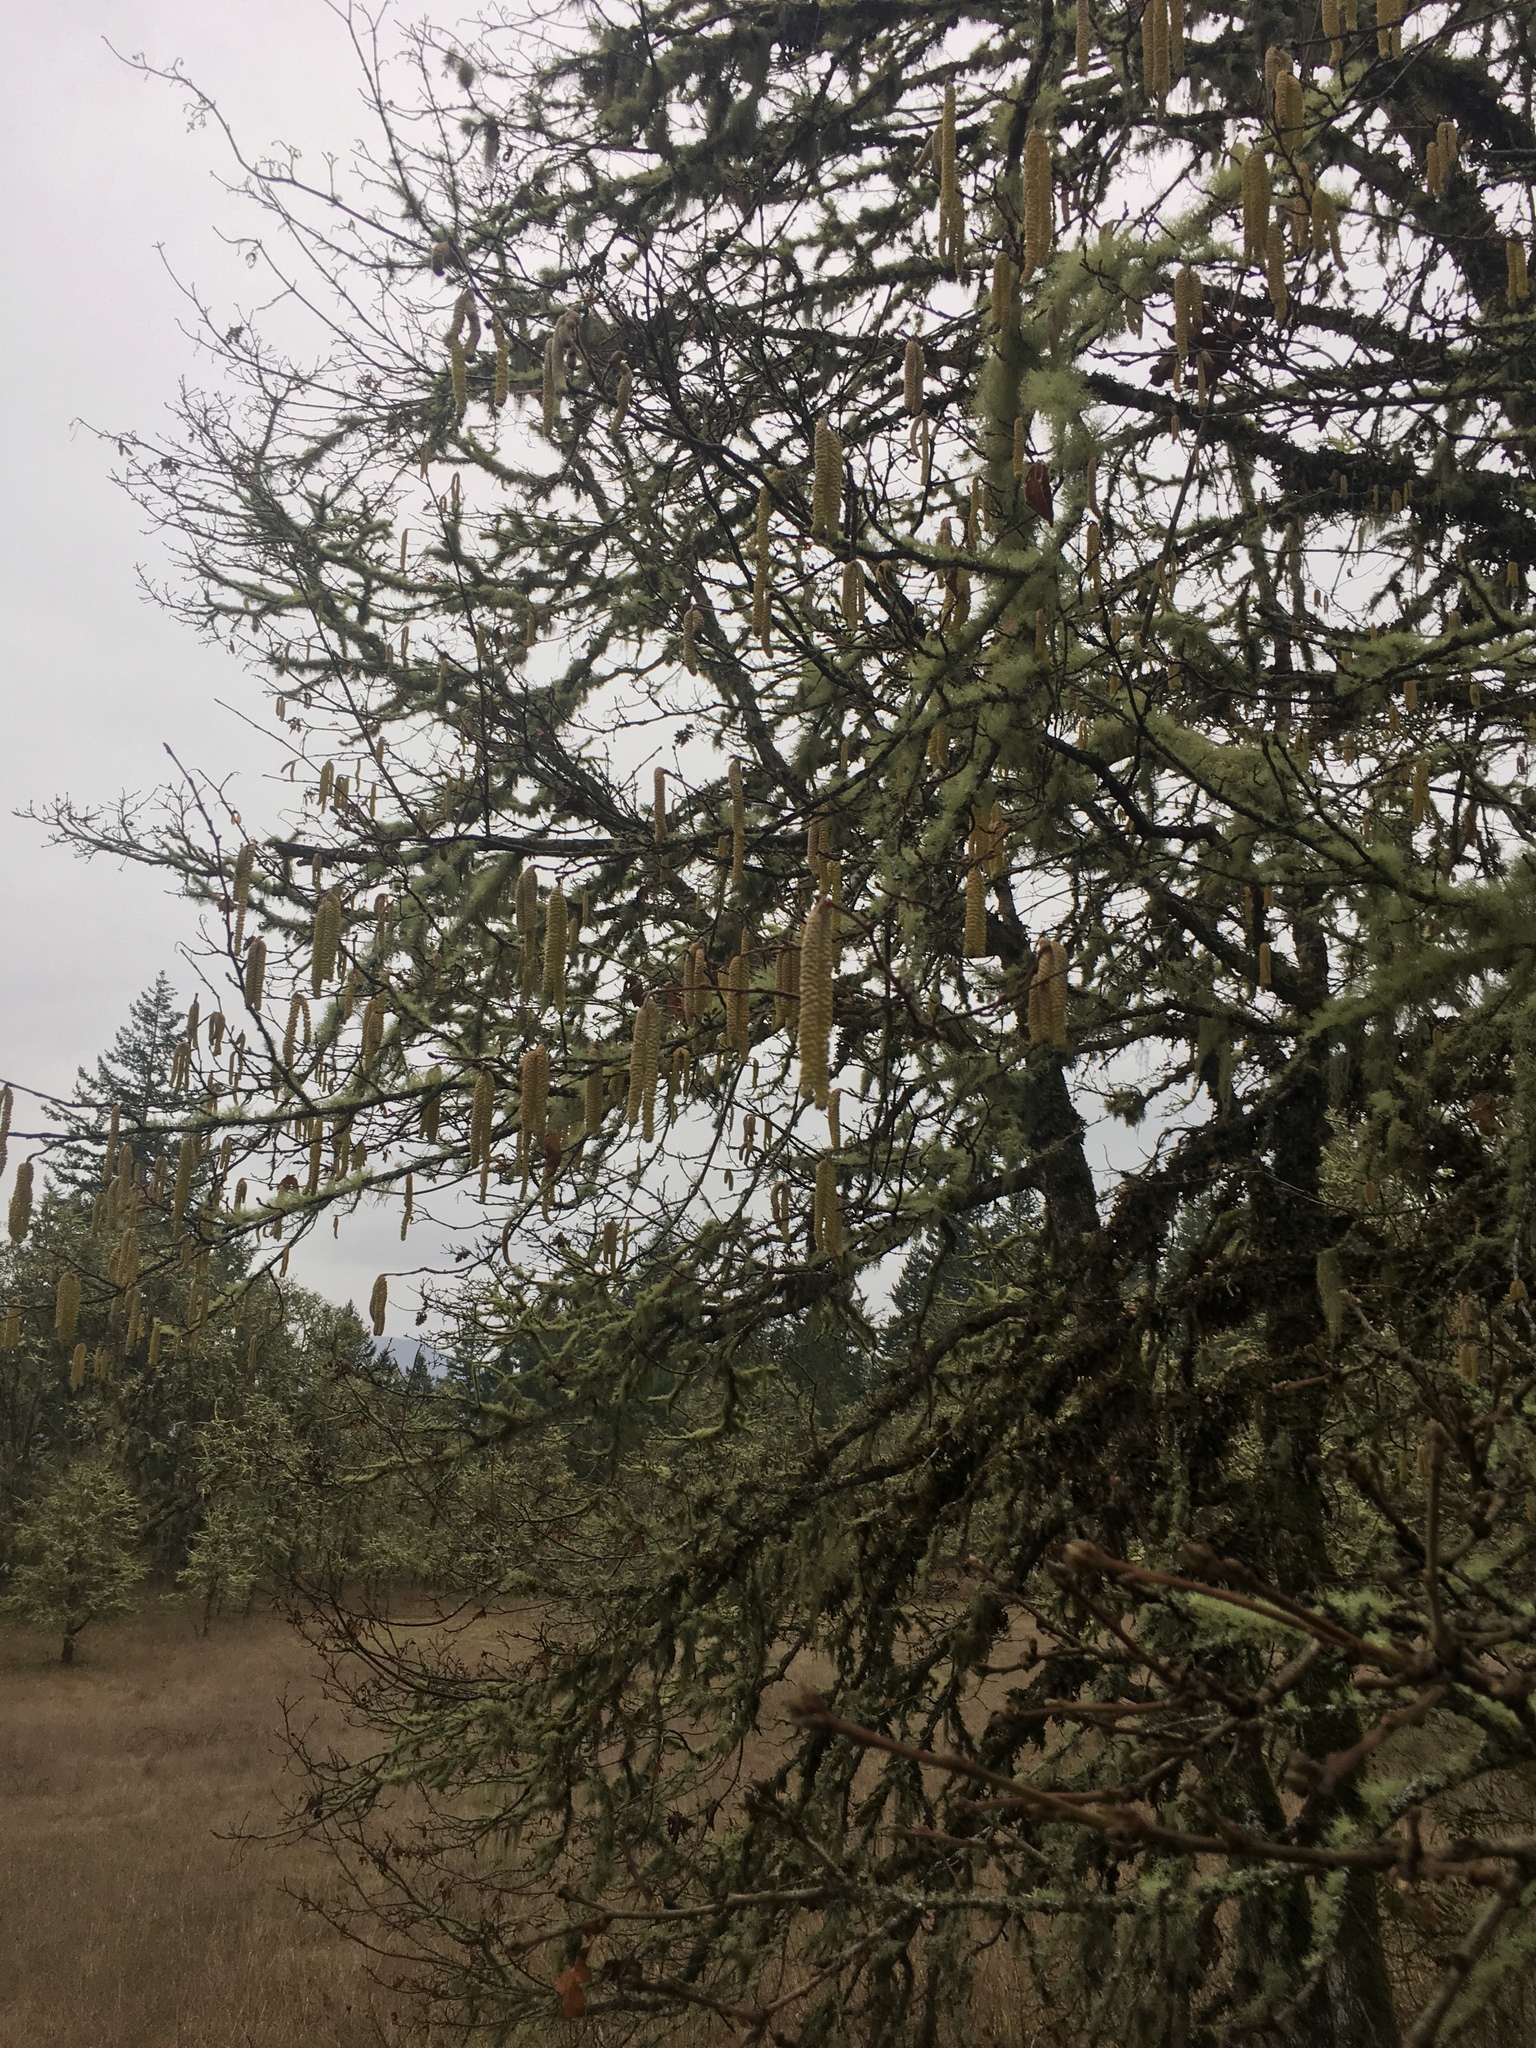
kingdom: Plantae
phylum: Tracheophyta
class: Magnoliopsida
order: Fagales
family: Betulaceae
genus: Corylus
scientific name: Corylus avellana
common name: European hazel
